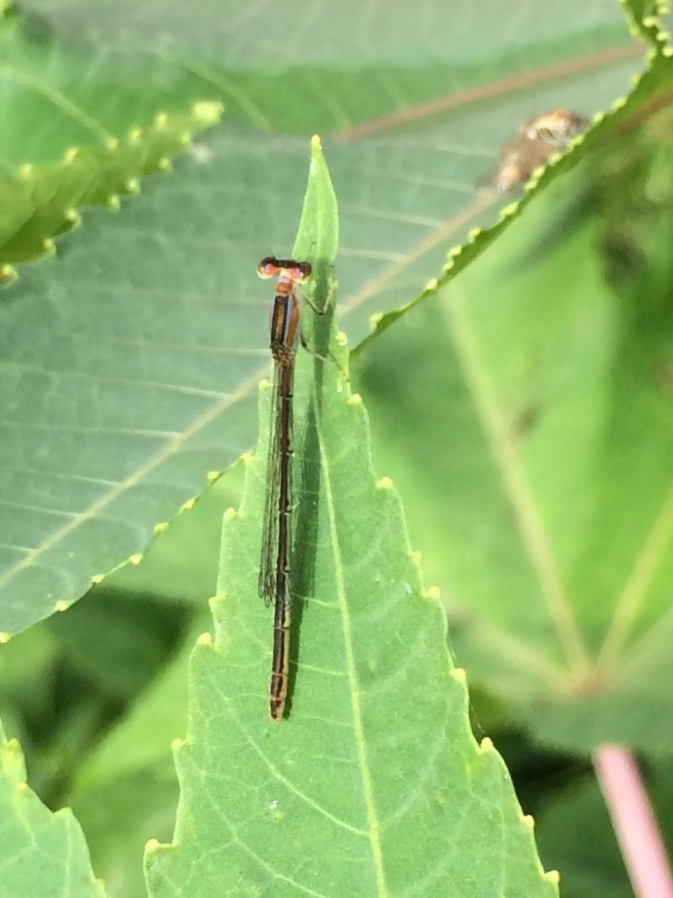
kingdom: Animalia
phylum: Arthropoda
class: Insecta
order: Odonata
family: Coenagrionidae
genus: Agriocnemis
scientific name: Agriocnemis pygmaea
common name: Pygmy wisp
